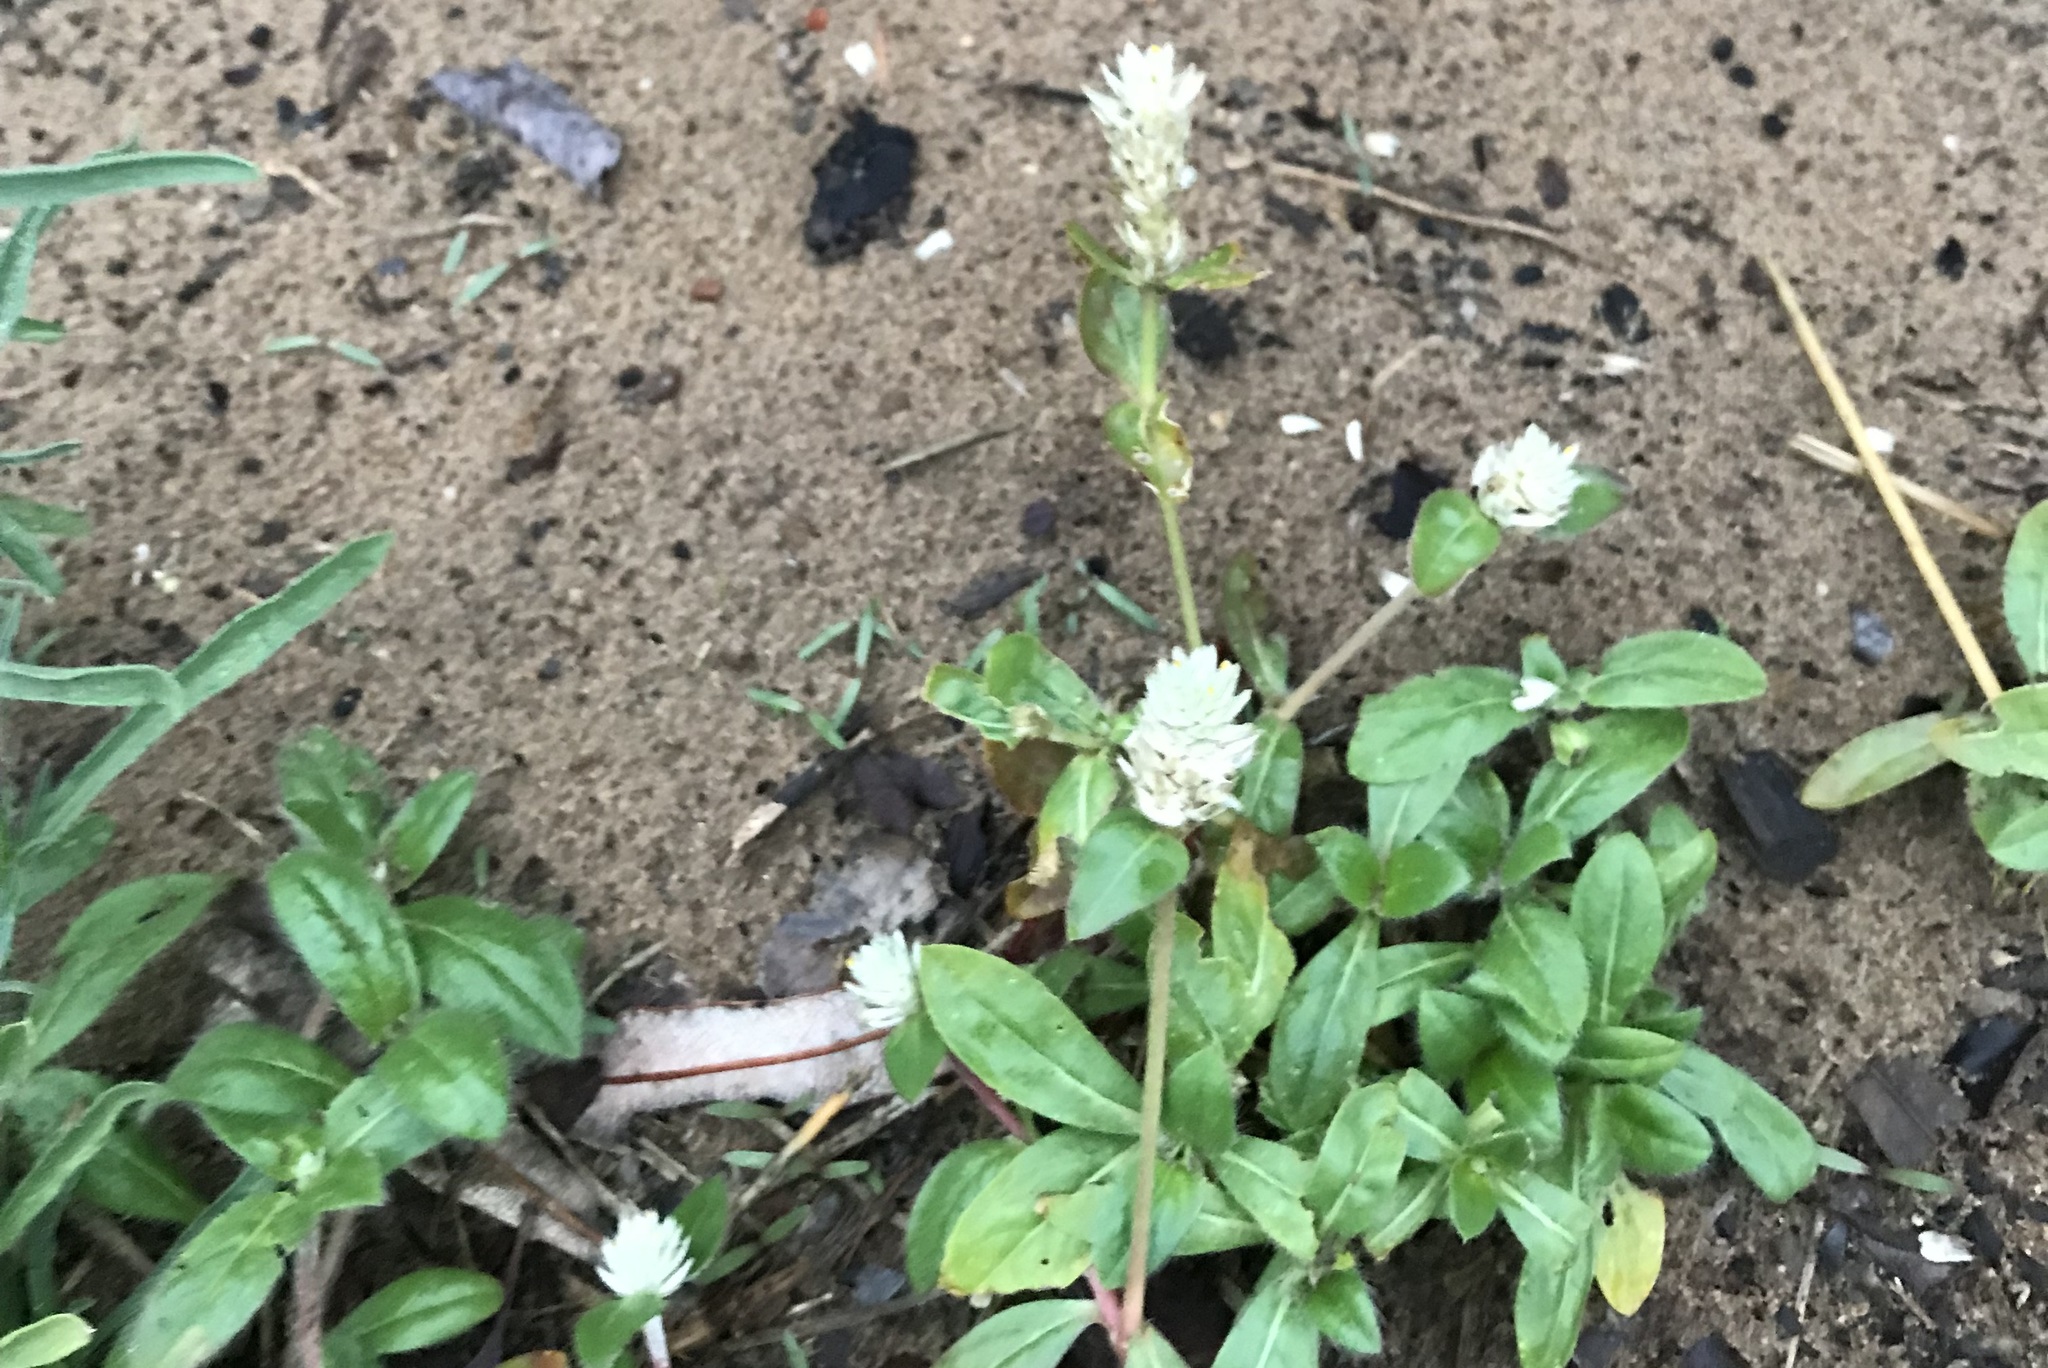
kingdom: Plantae
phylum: Tracheophyta
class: Magnoliopsida
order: Caryophyllales
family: Amaranthaceae
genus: Gomphrena
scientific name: Gomphrena celosioides
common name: Gomphrena-weed
